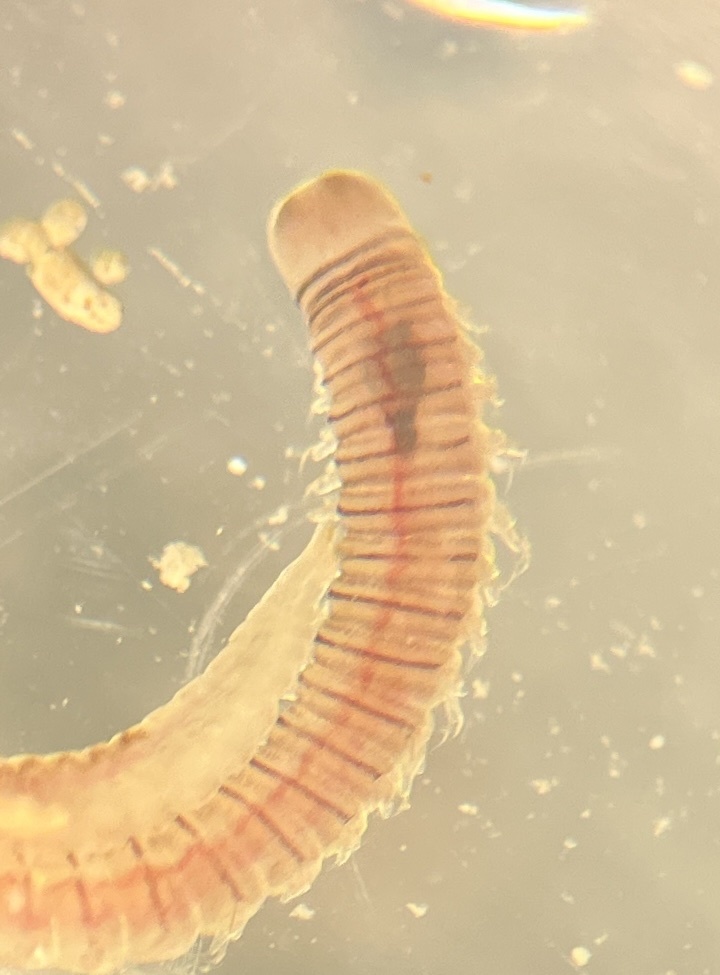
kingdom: Animalia
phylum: Annelida
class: Polychaeta
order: Eunicida
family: Lumbrineridae
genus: Lumbrineris
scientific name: Lumbrineris perkinsi
